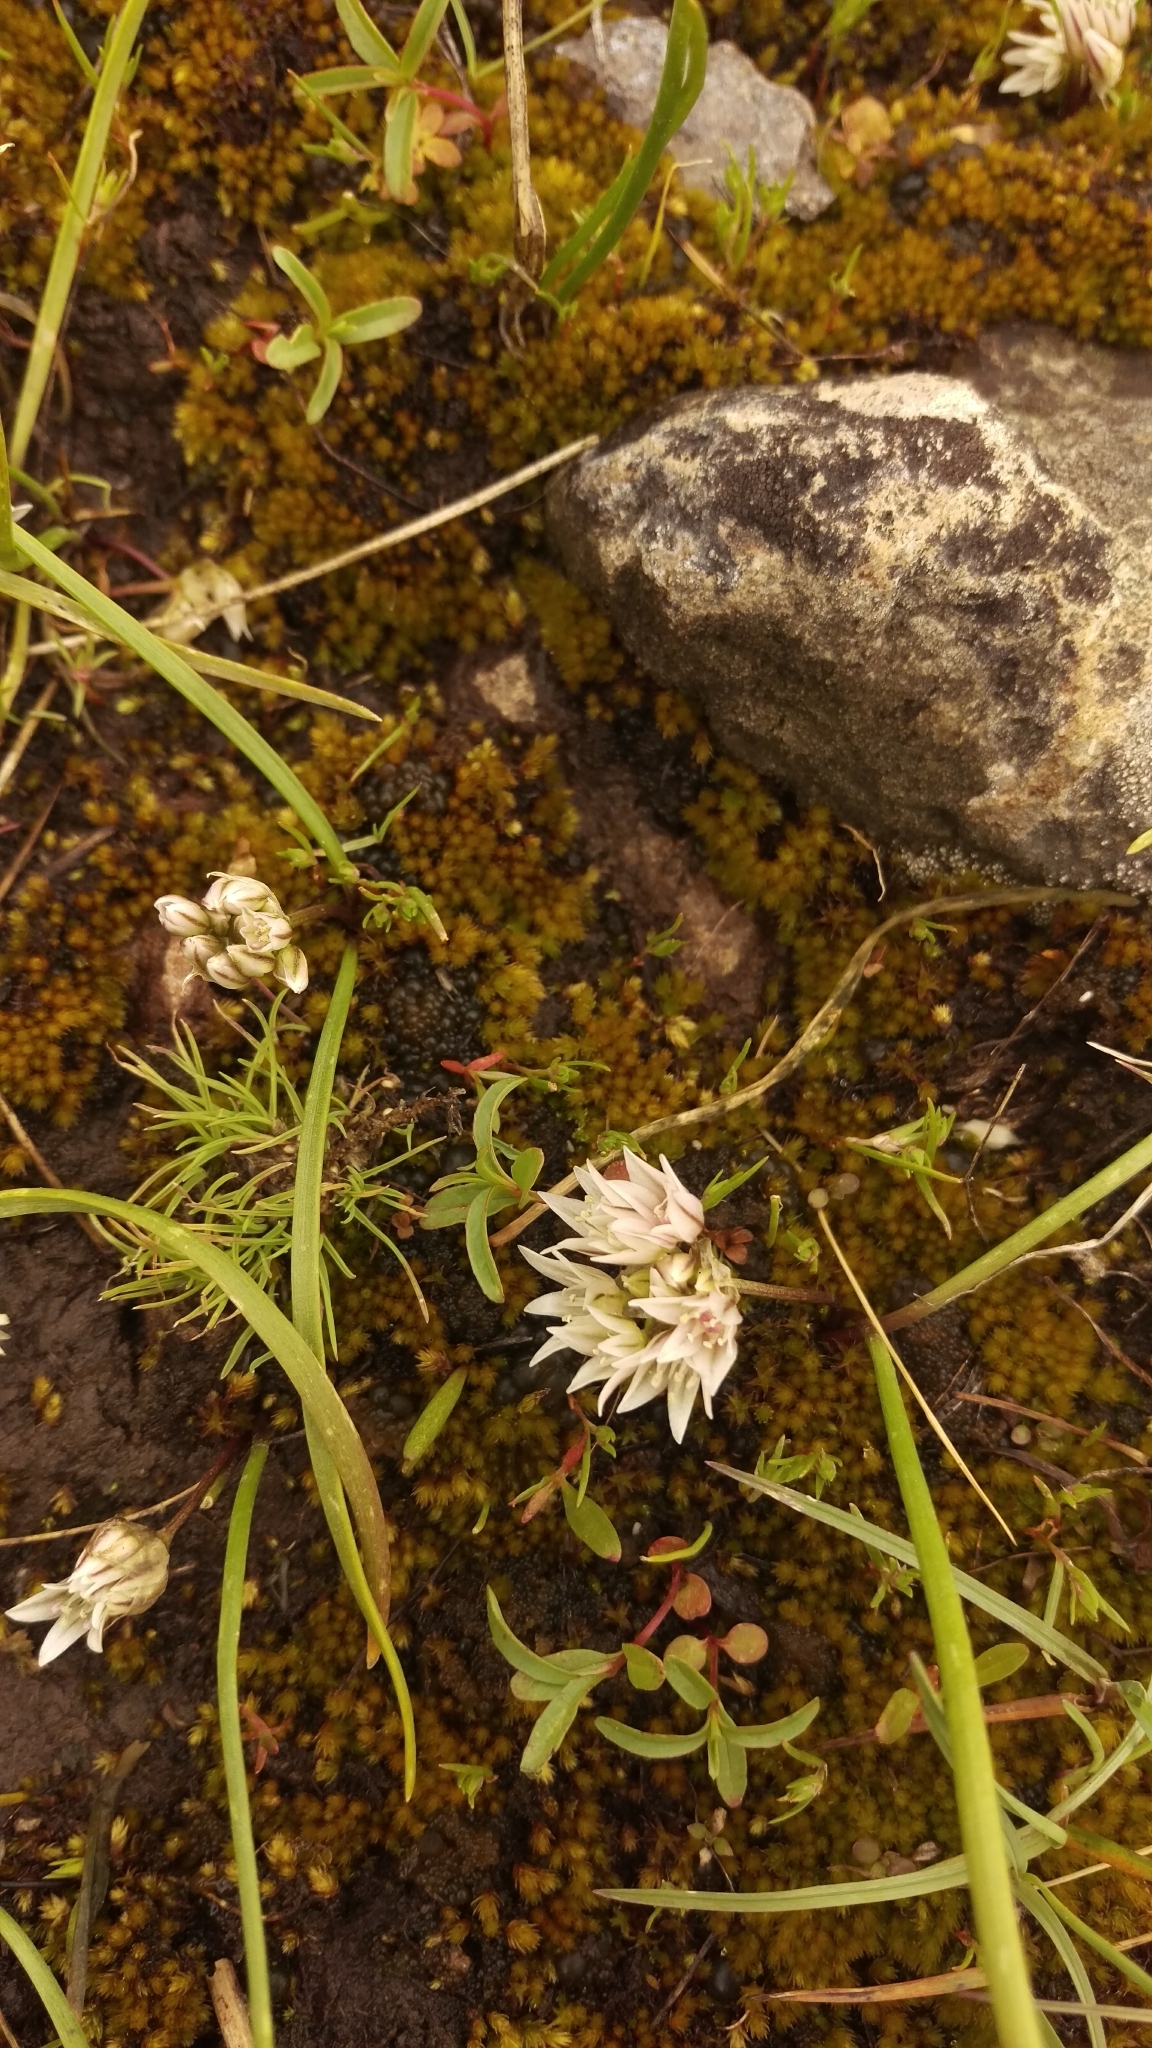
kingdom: Plantae
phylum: Tracheophyta
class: Liliopsida
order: Asparagales
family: Amaryllidaceae
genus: Allium
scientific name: Allium brandegeei
